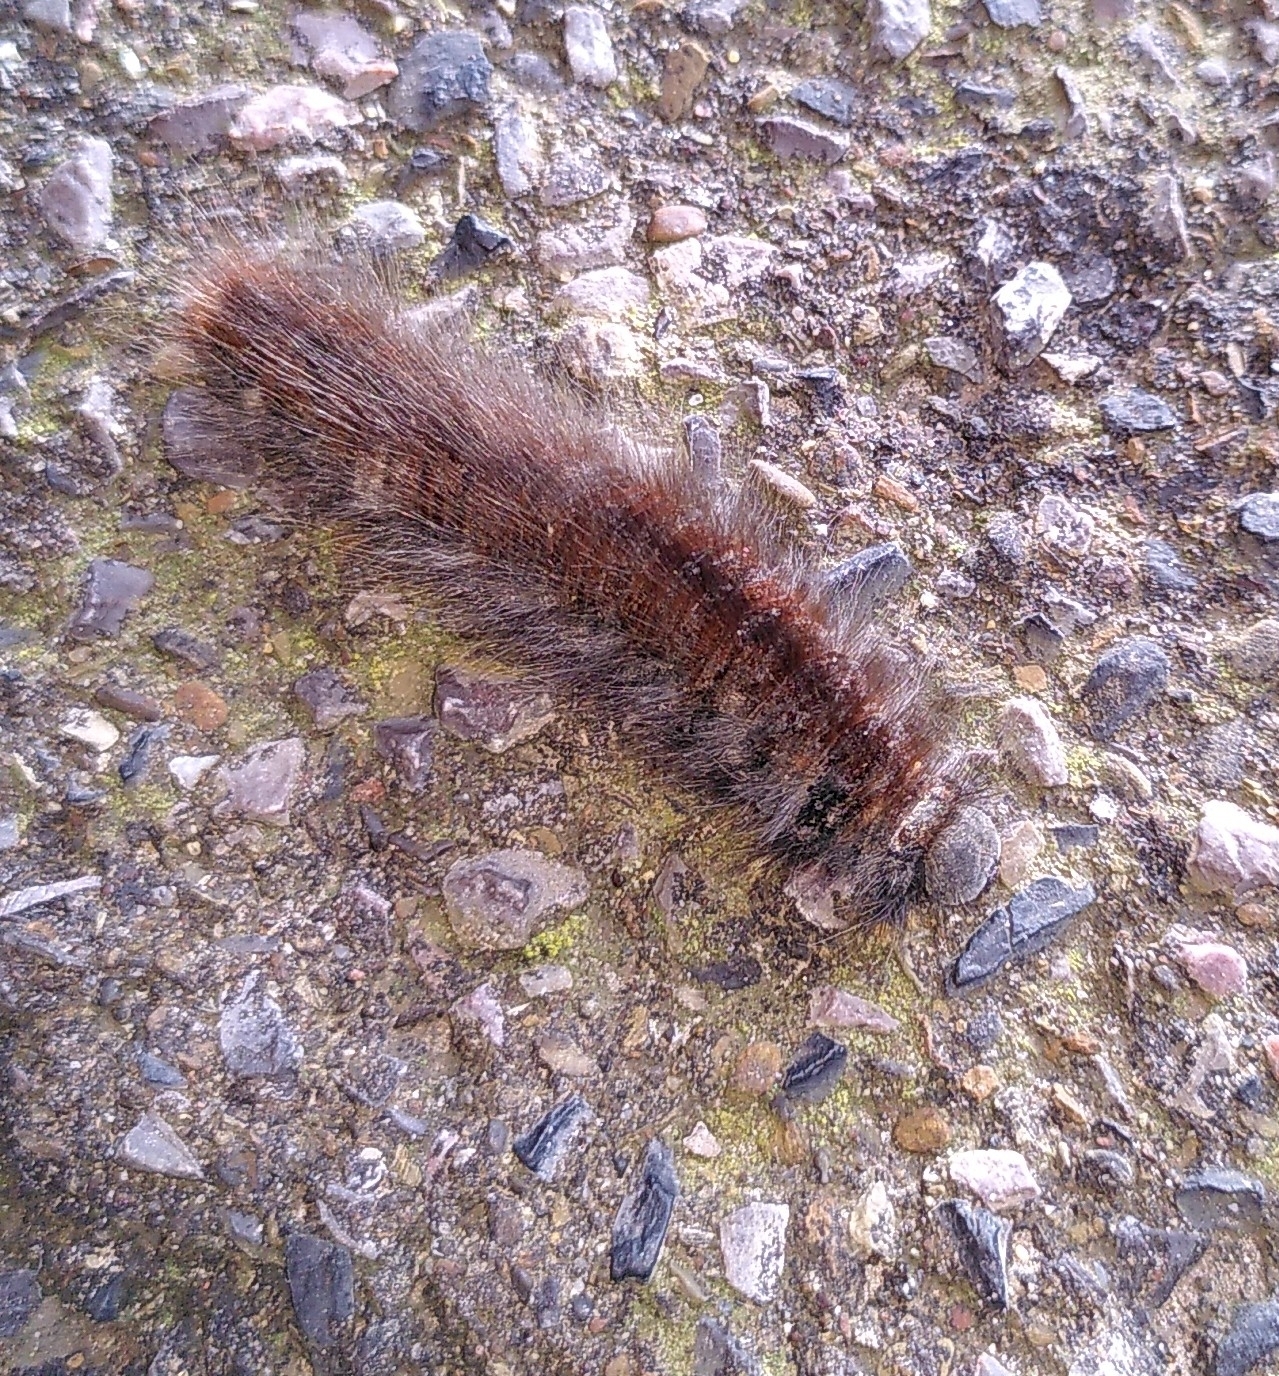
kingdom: Animalia
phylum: Arthropoda
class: Insecta
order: Lepidoptera
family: Lasiocampidae
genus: Macrothylacia
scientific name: Macrothylacia rubi
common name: Fox moth
